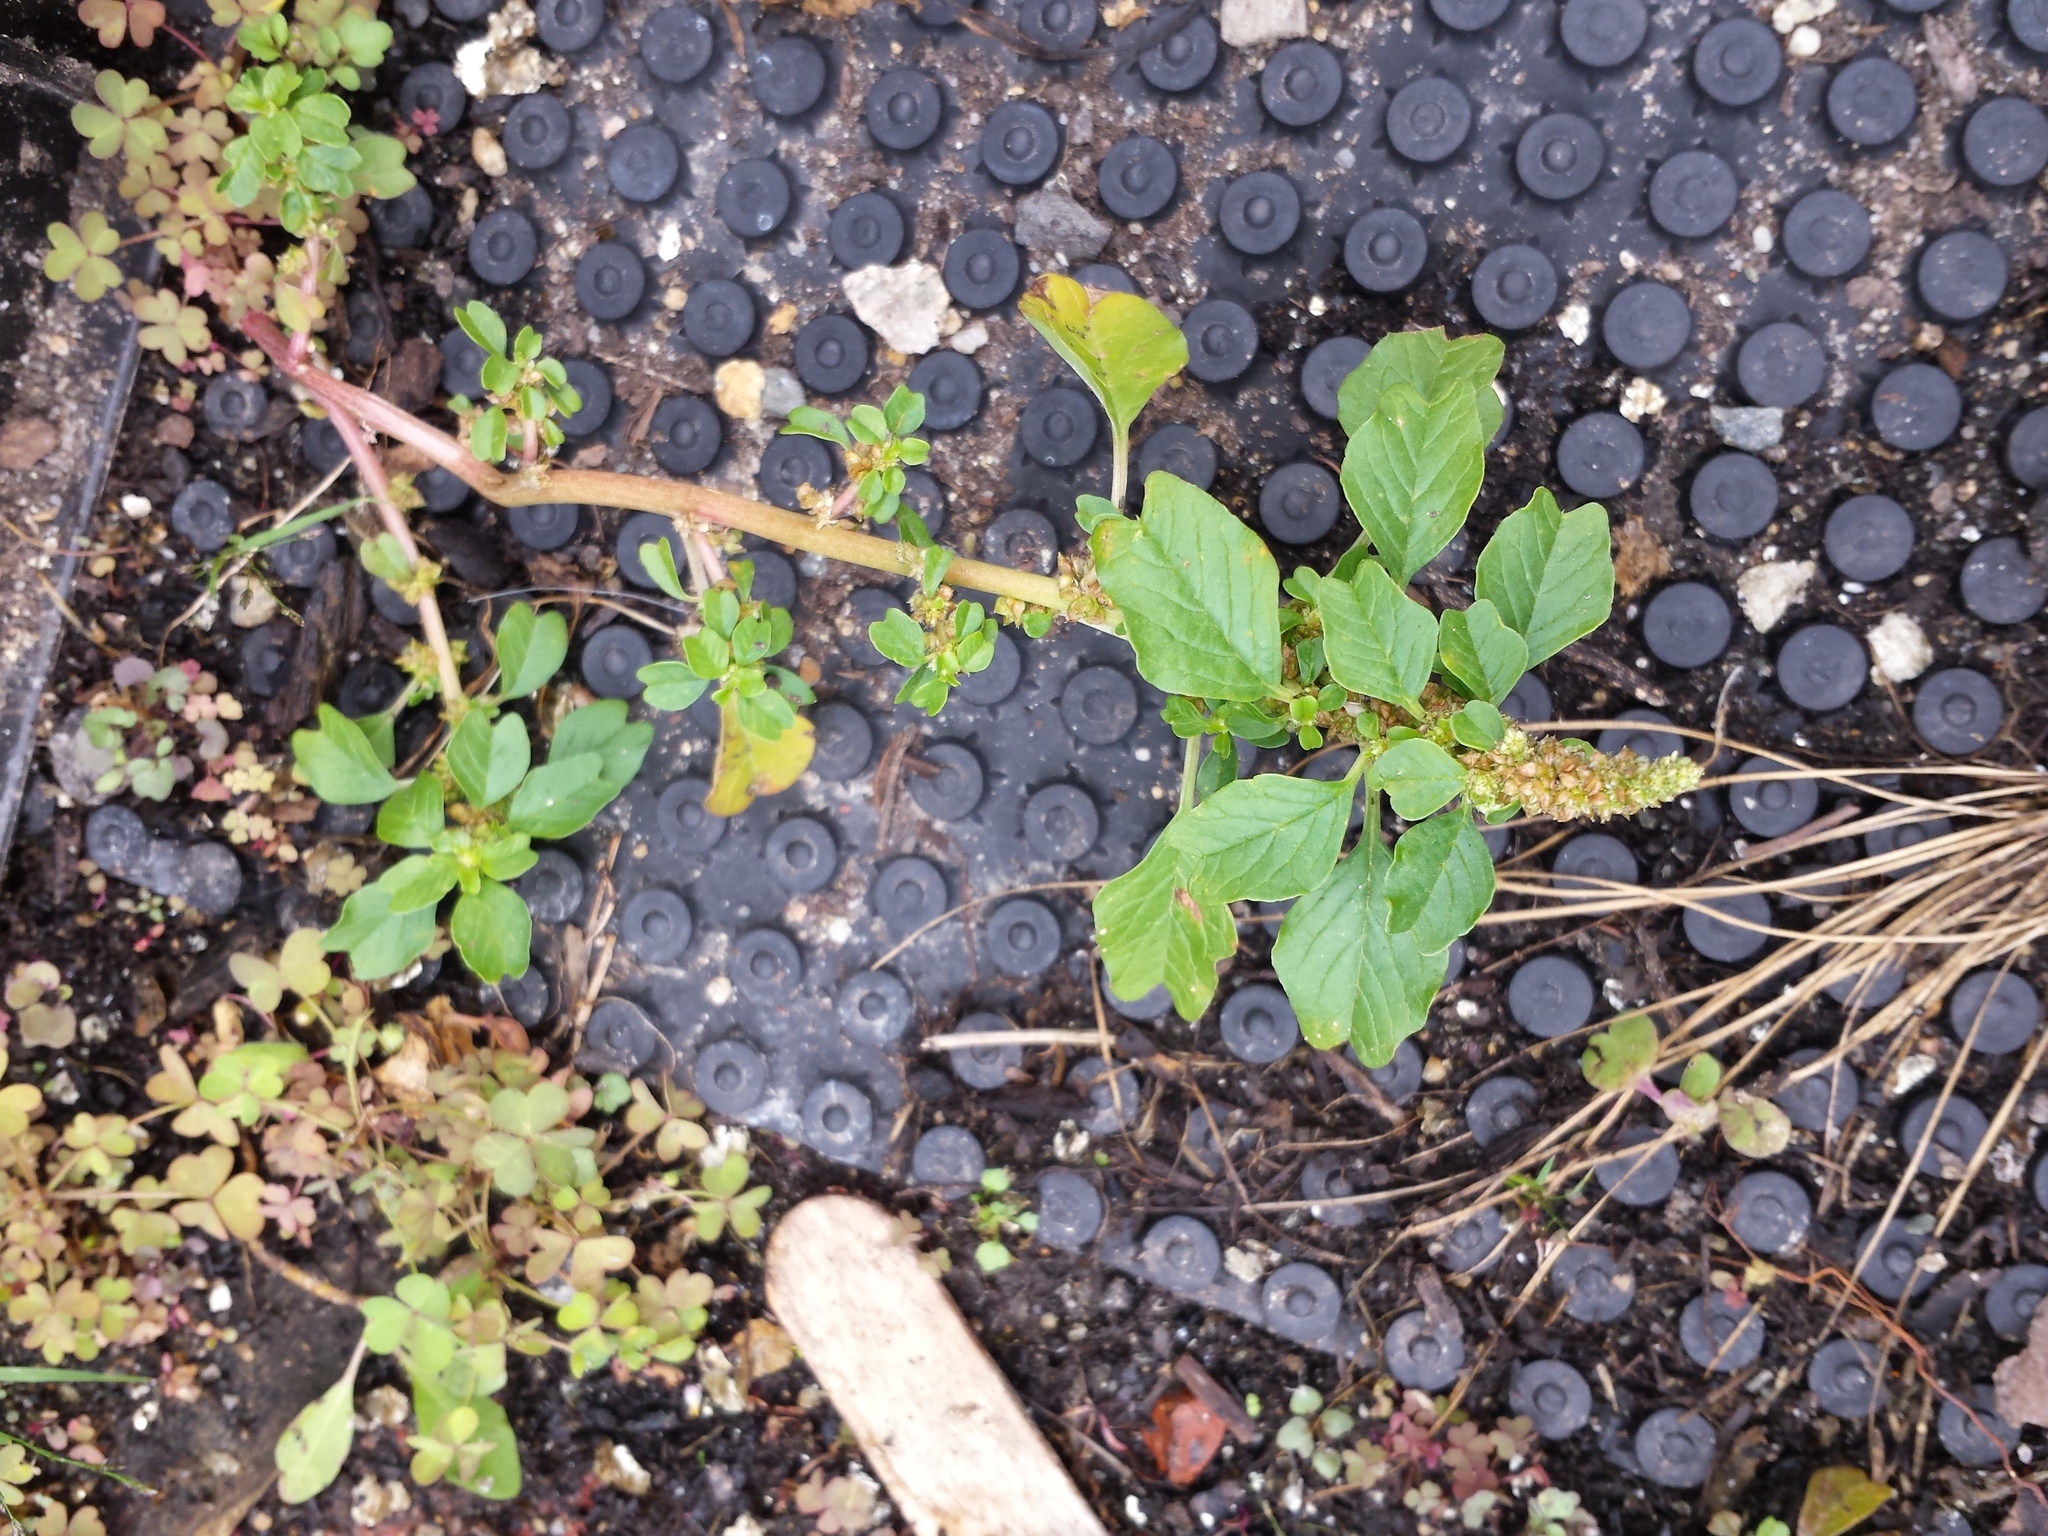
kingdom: Plantae
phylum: Tracheophyta
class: Magnoliopsida
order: Caryophyllales
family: Amaranthaceae
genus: Amaranthus
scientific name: Amaranthus blitum
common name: Purple amaranth
